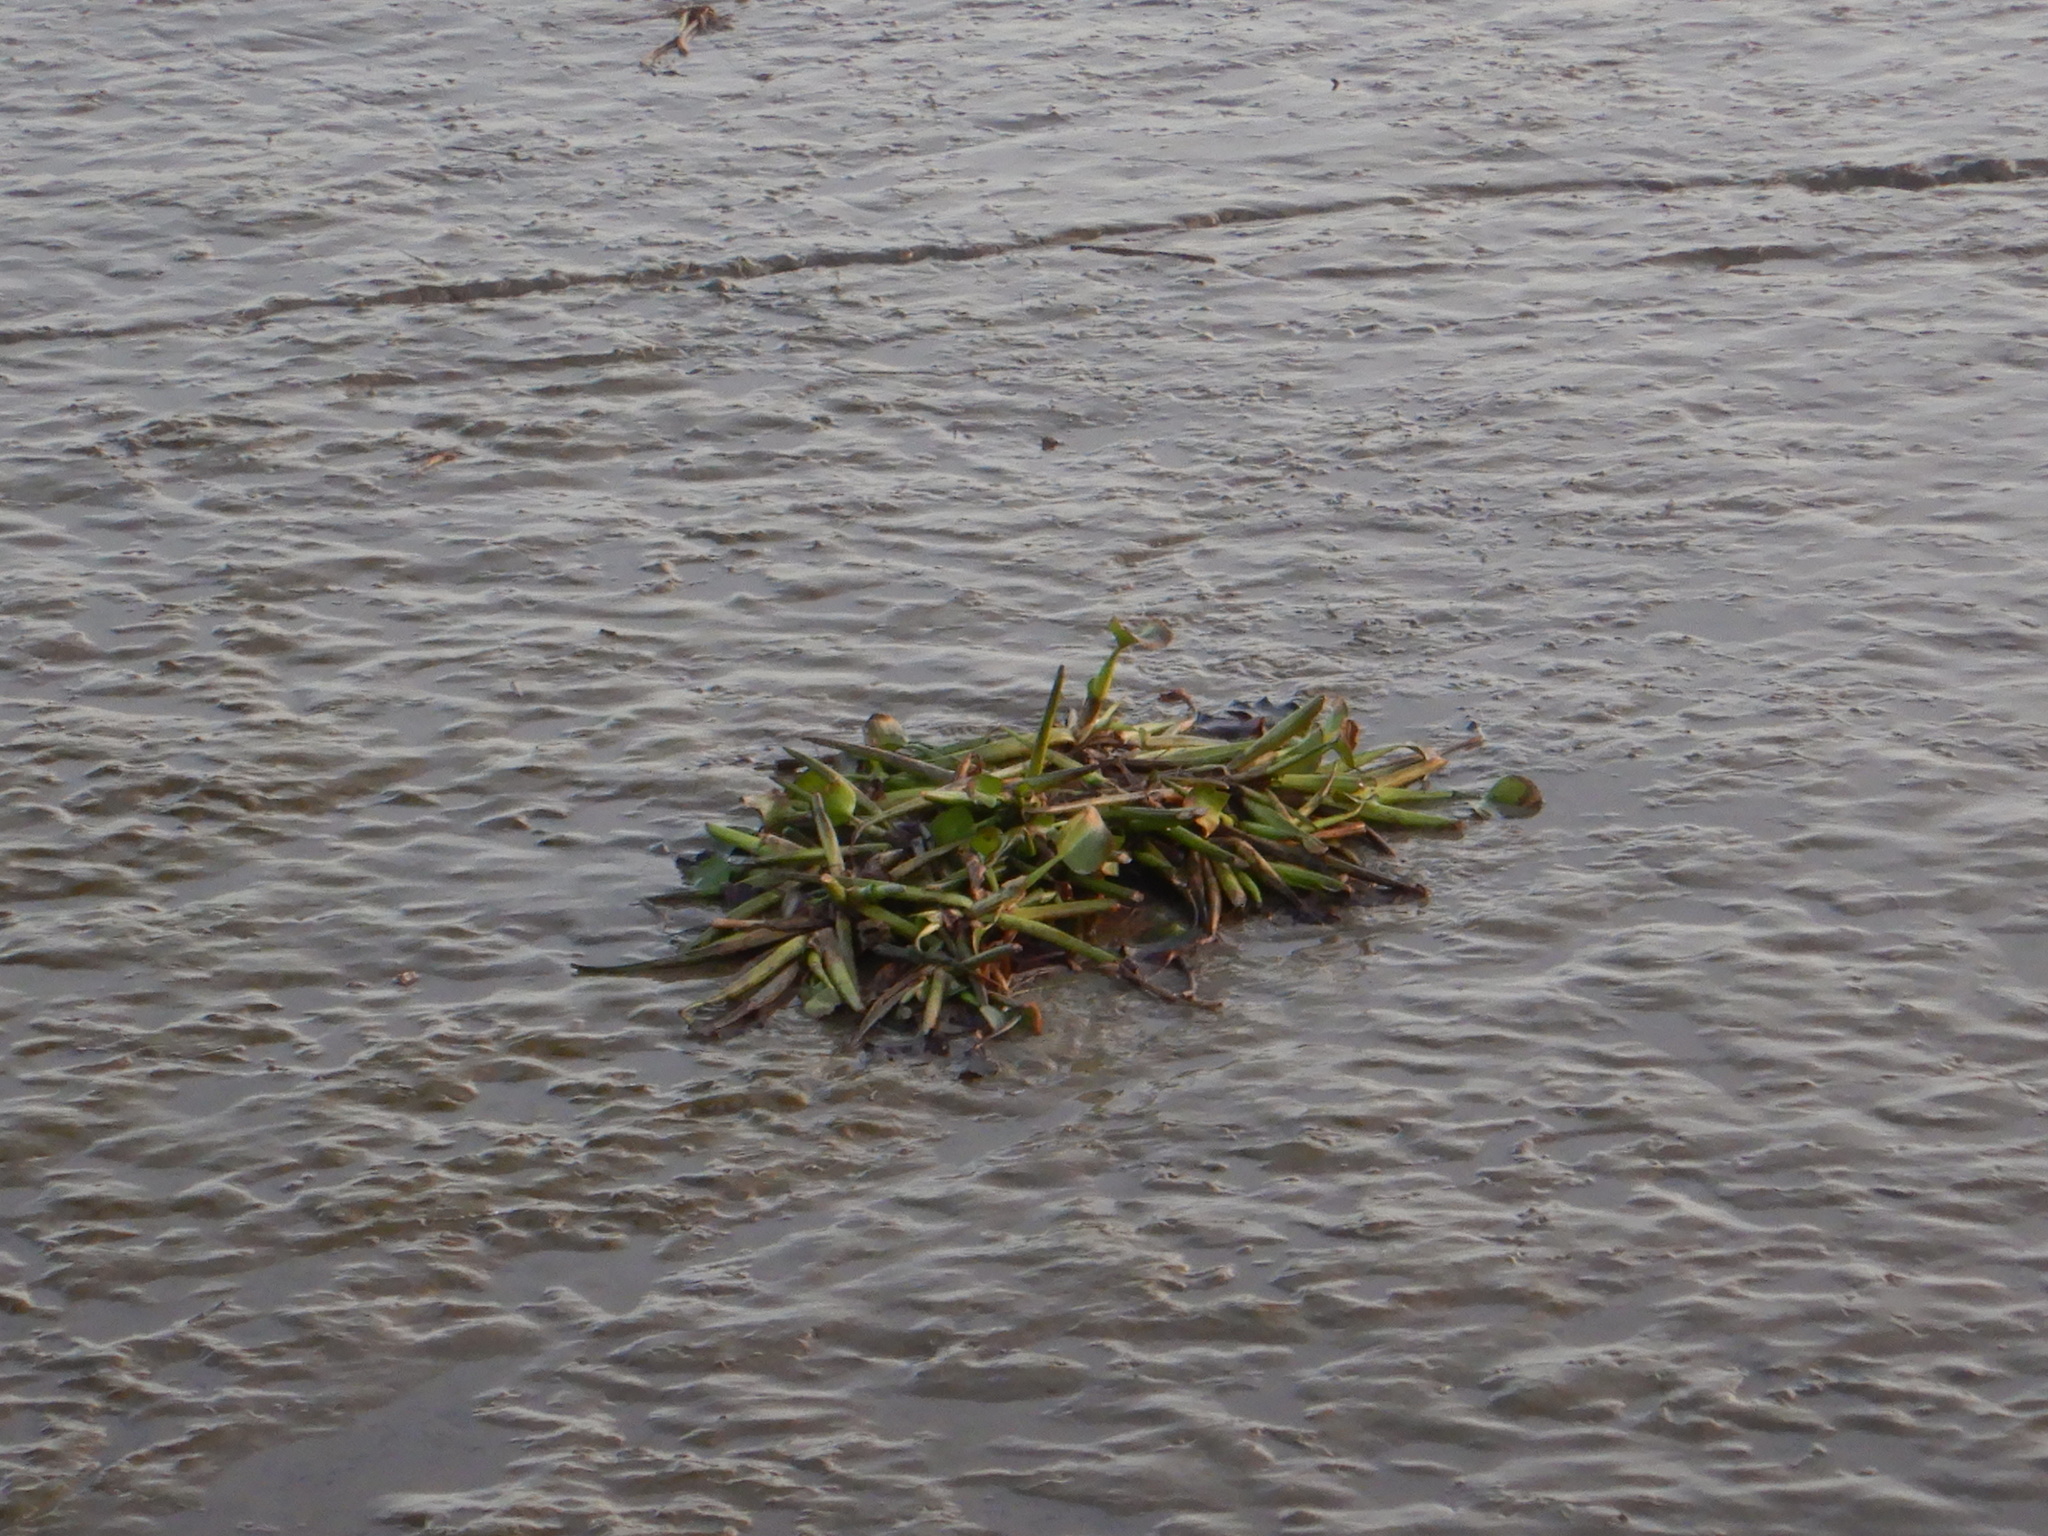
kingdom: Plantae
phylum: Tracheophyta
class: Liliopsida
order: Commelinales
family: Pontederiaceae
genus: Pontederia
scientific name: Pontederia crassipes
